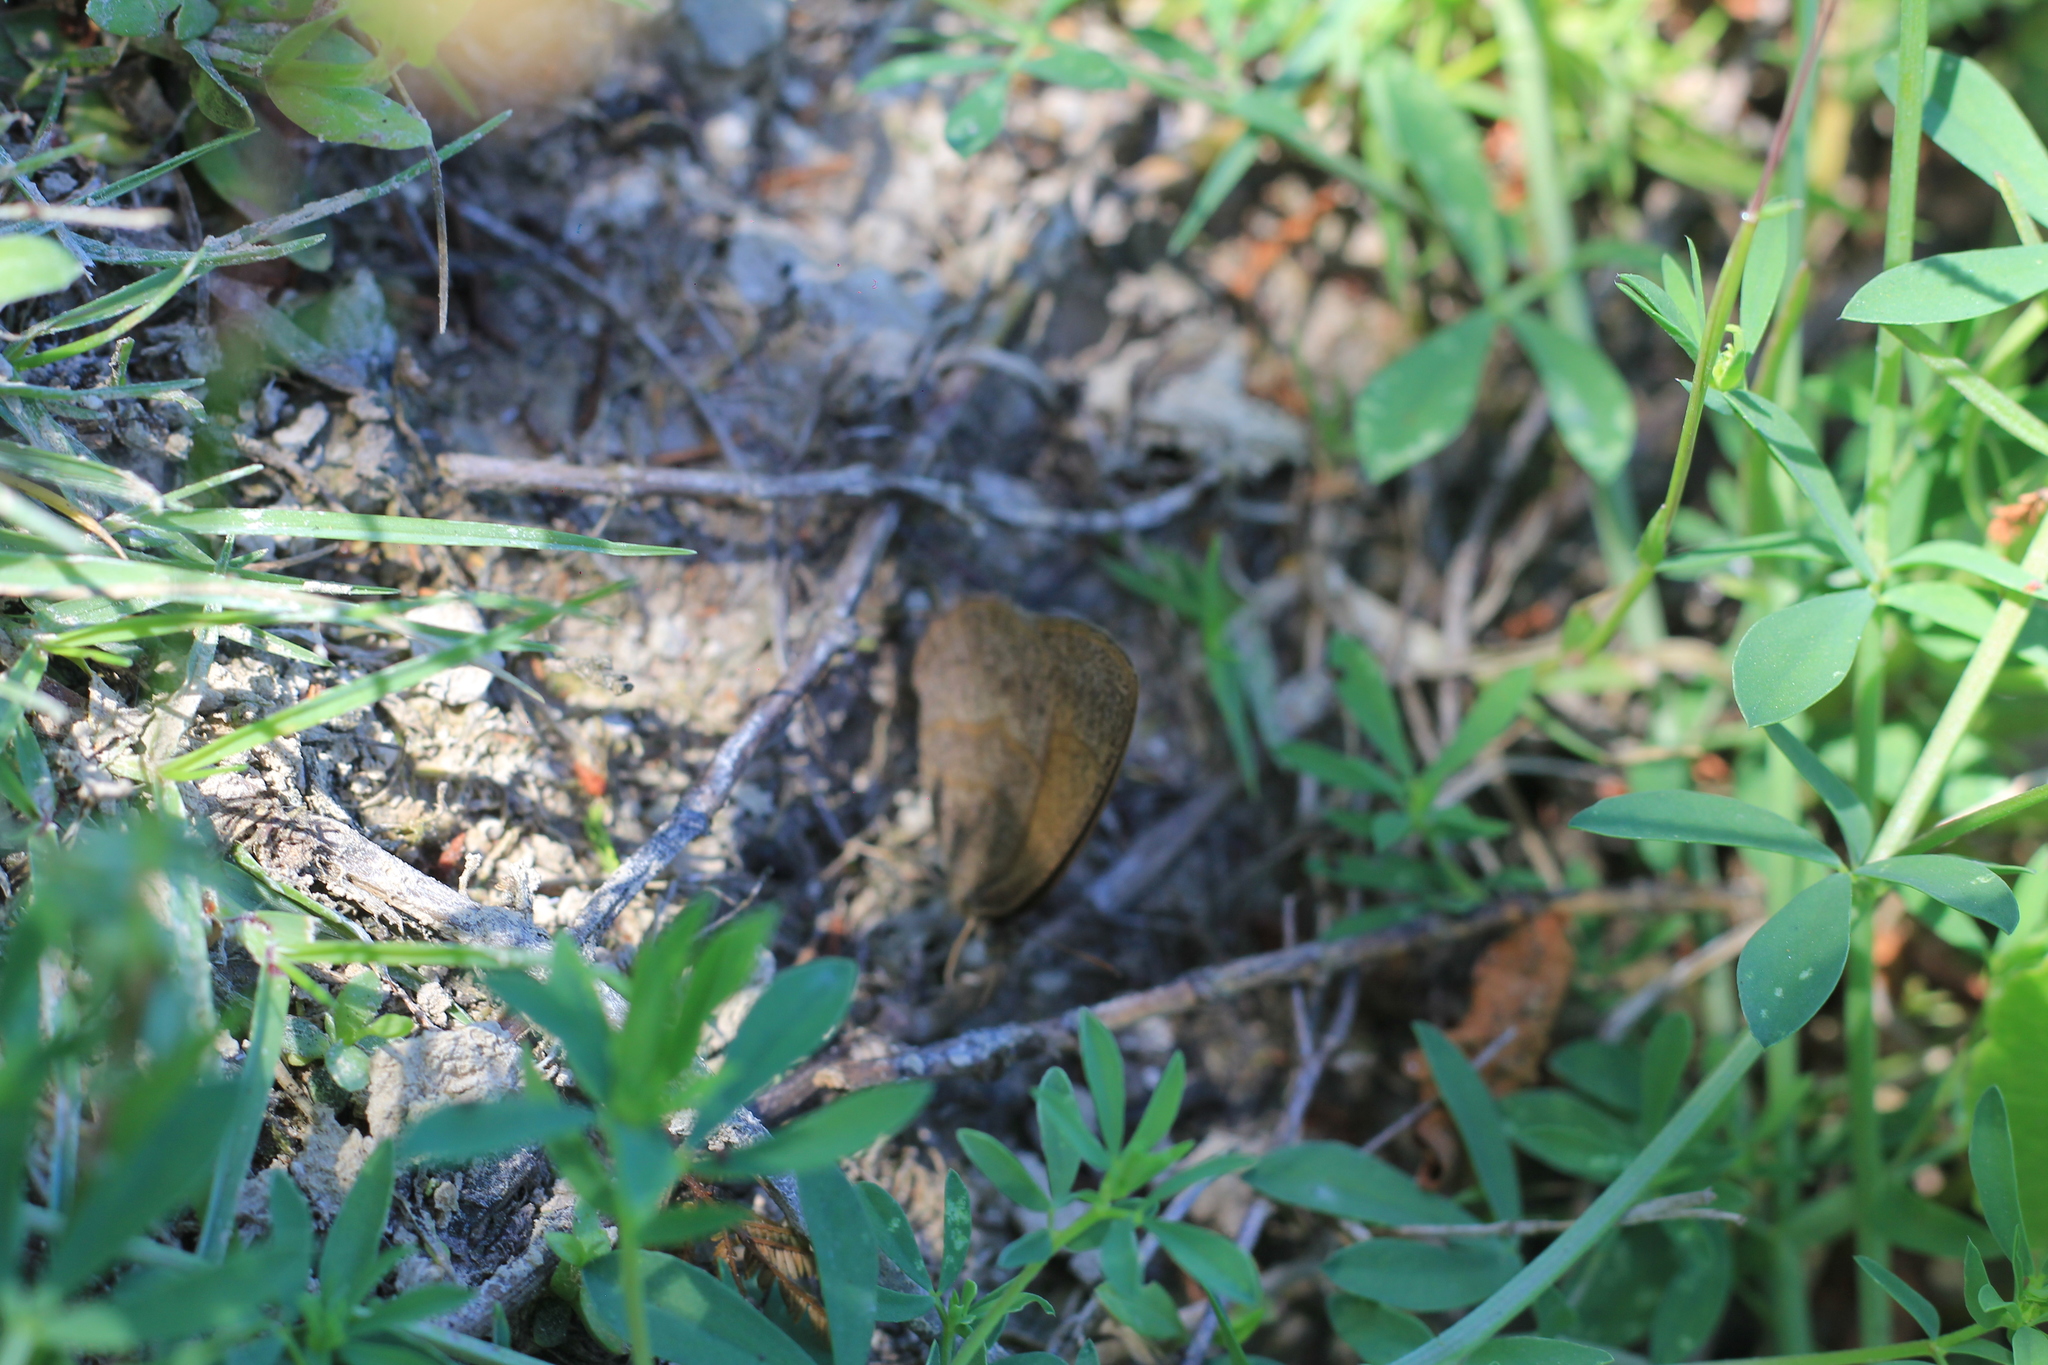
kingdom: Animalia
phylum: Arthropoda
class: Insecta
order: Lepidoptera
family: Nymphalidae
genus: Yphthimoides
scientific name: Yphthimoides celmis
